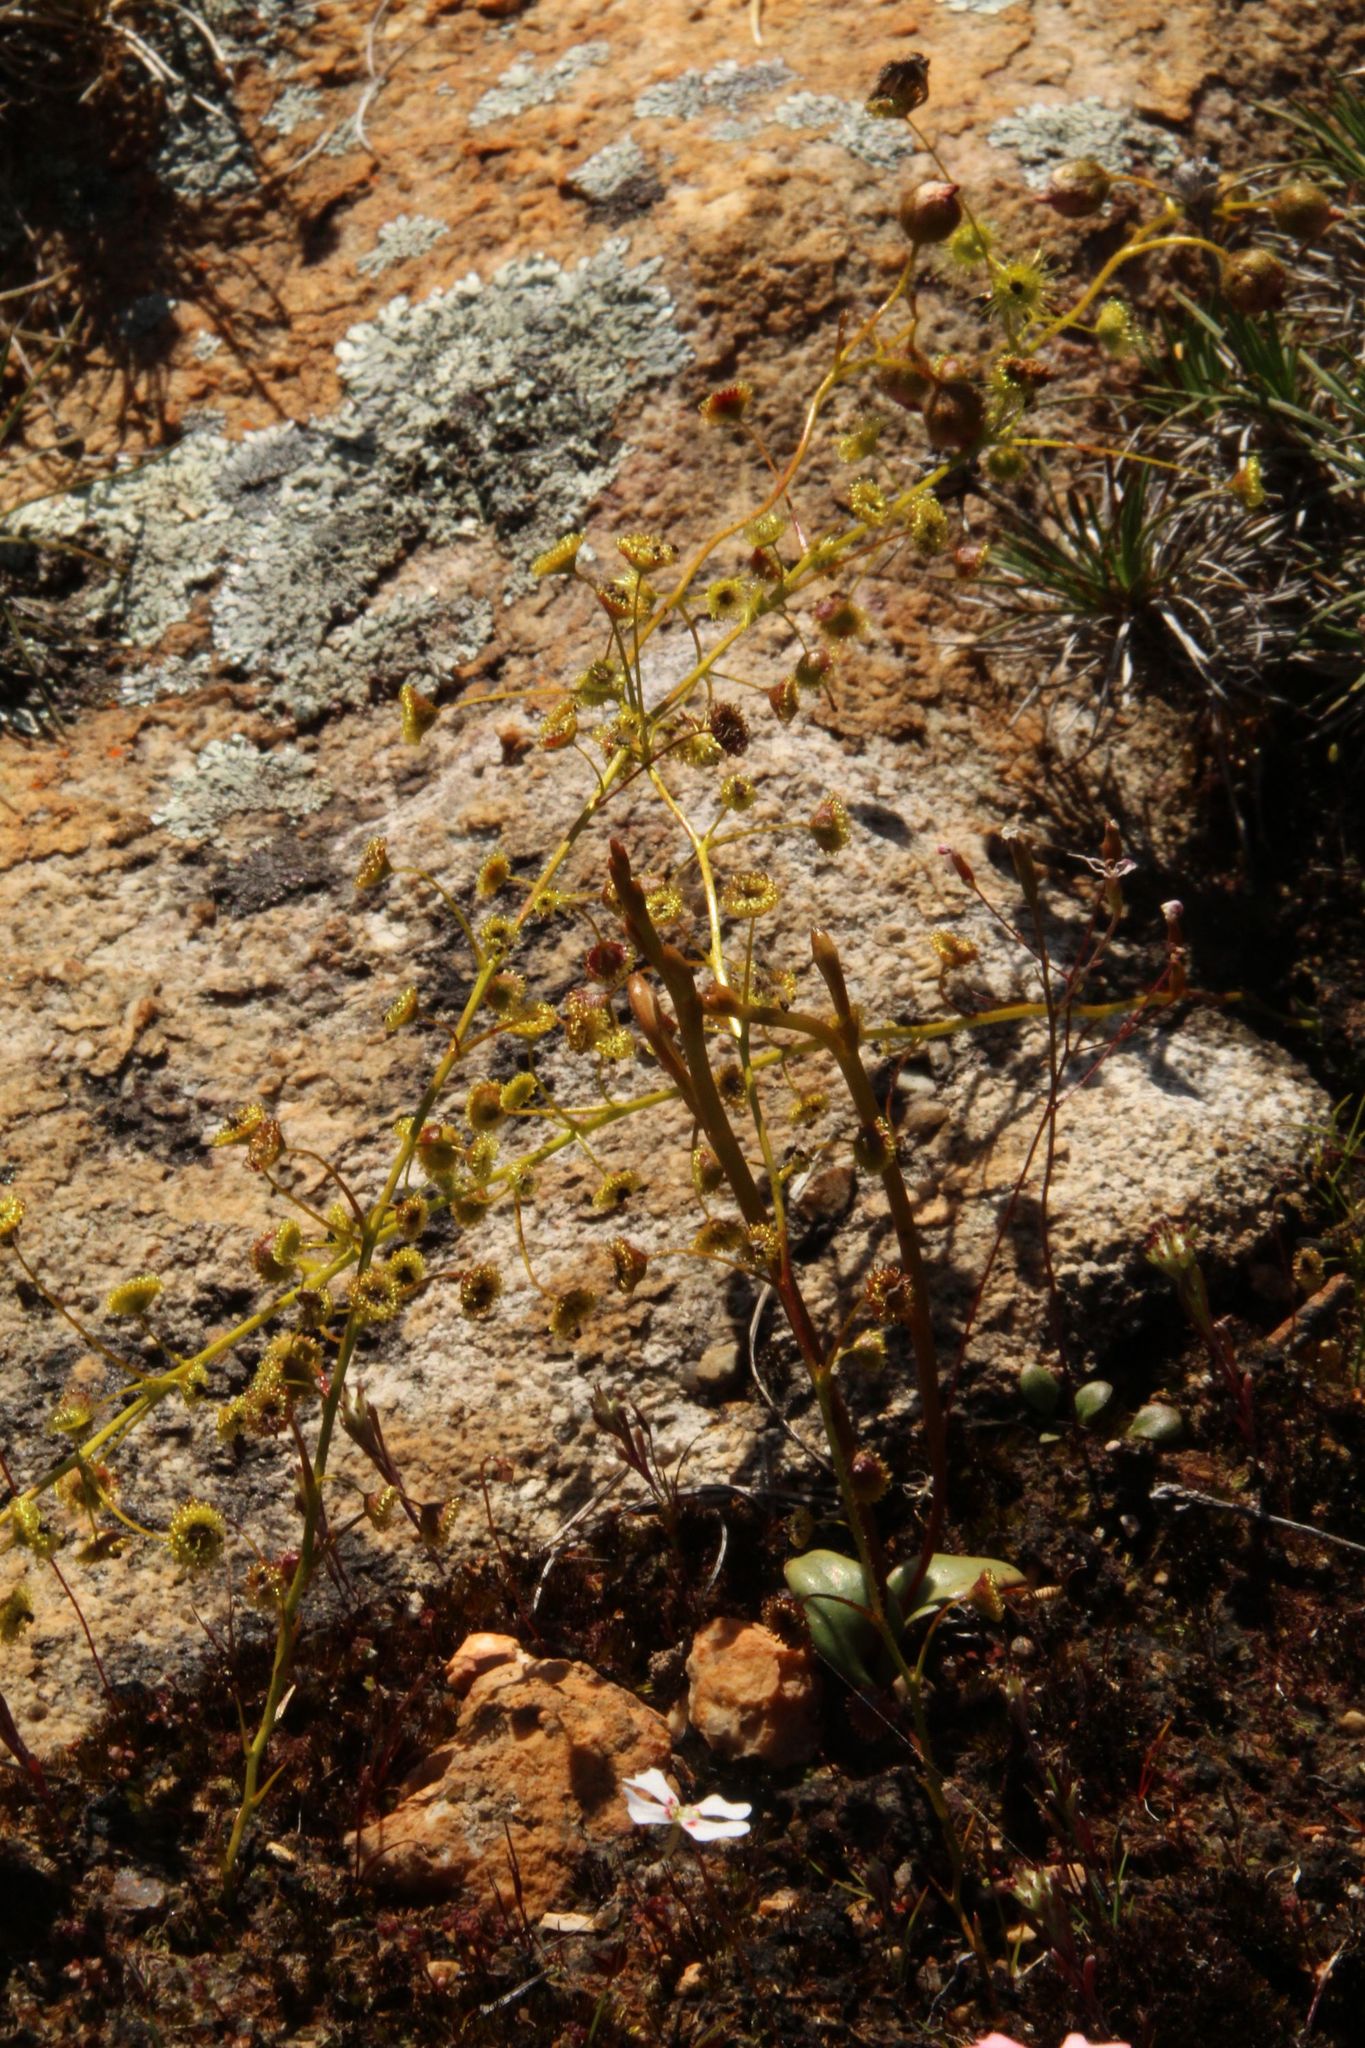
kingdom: Plantae
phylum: Tracheophyta
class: Liliopsida
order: Asparagales
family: Orchidaceae
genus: Spiculaea
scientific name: Spiculaea ciliata
